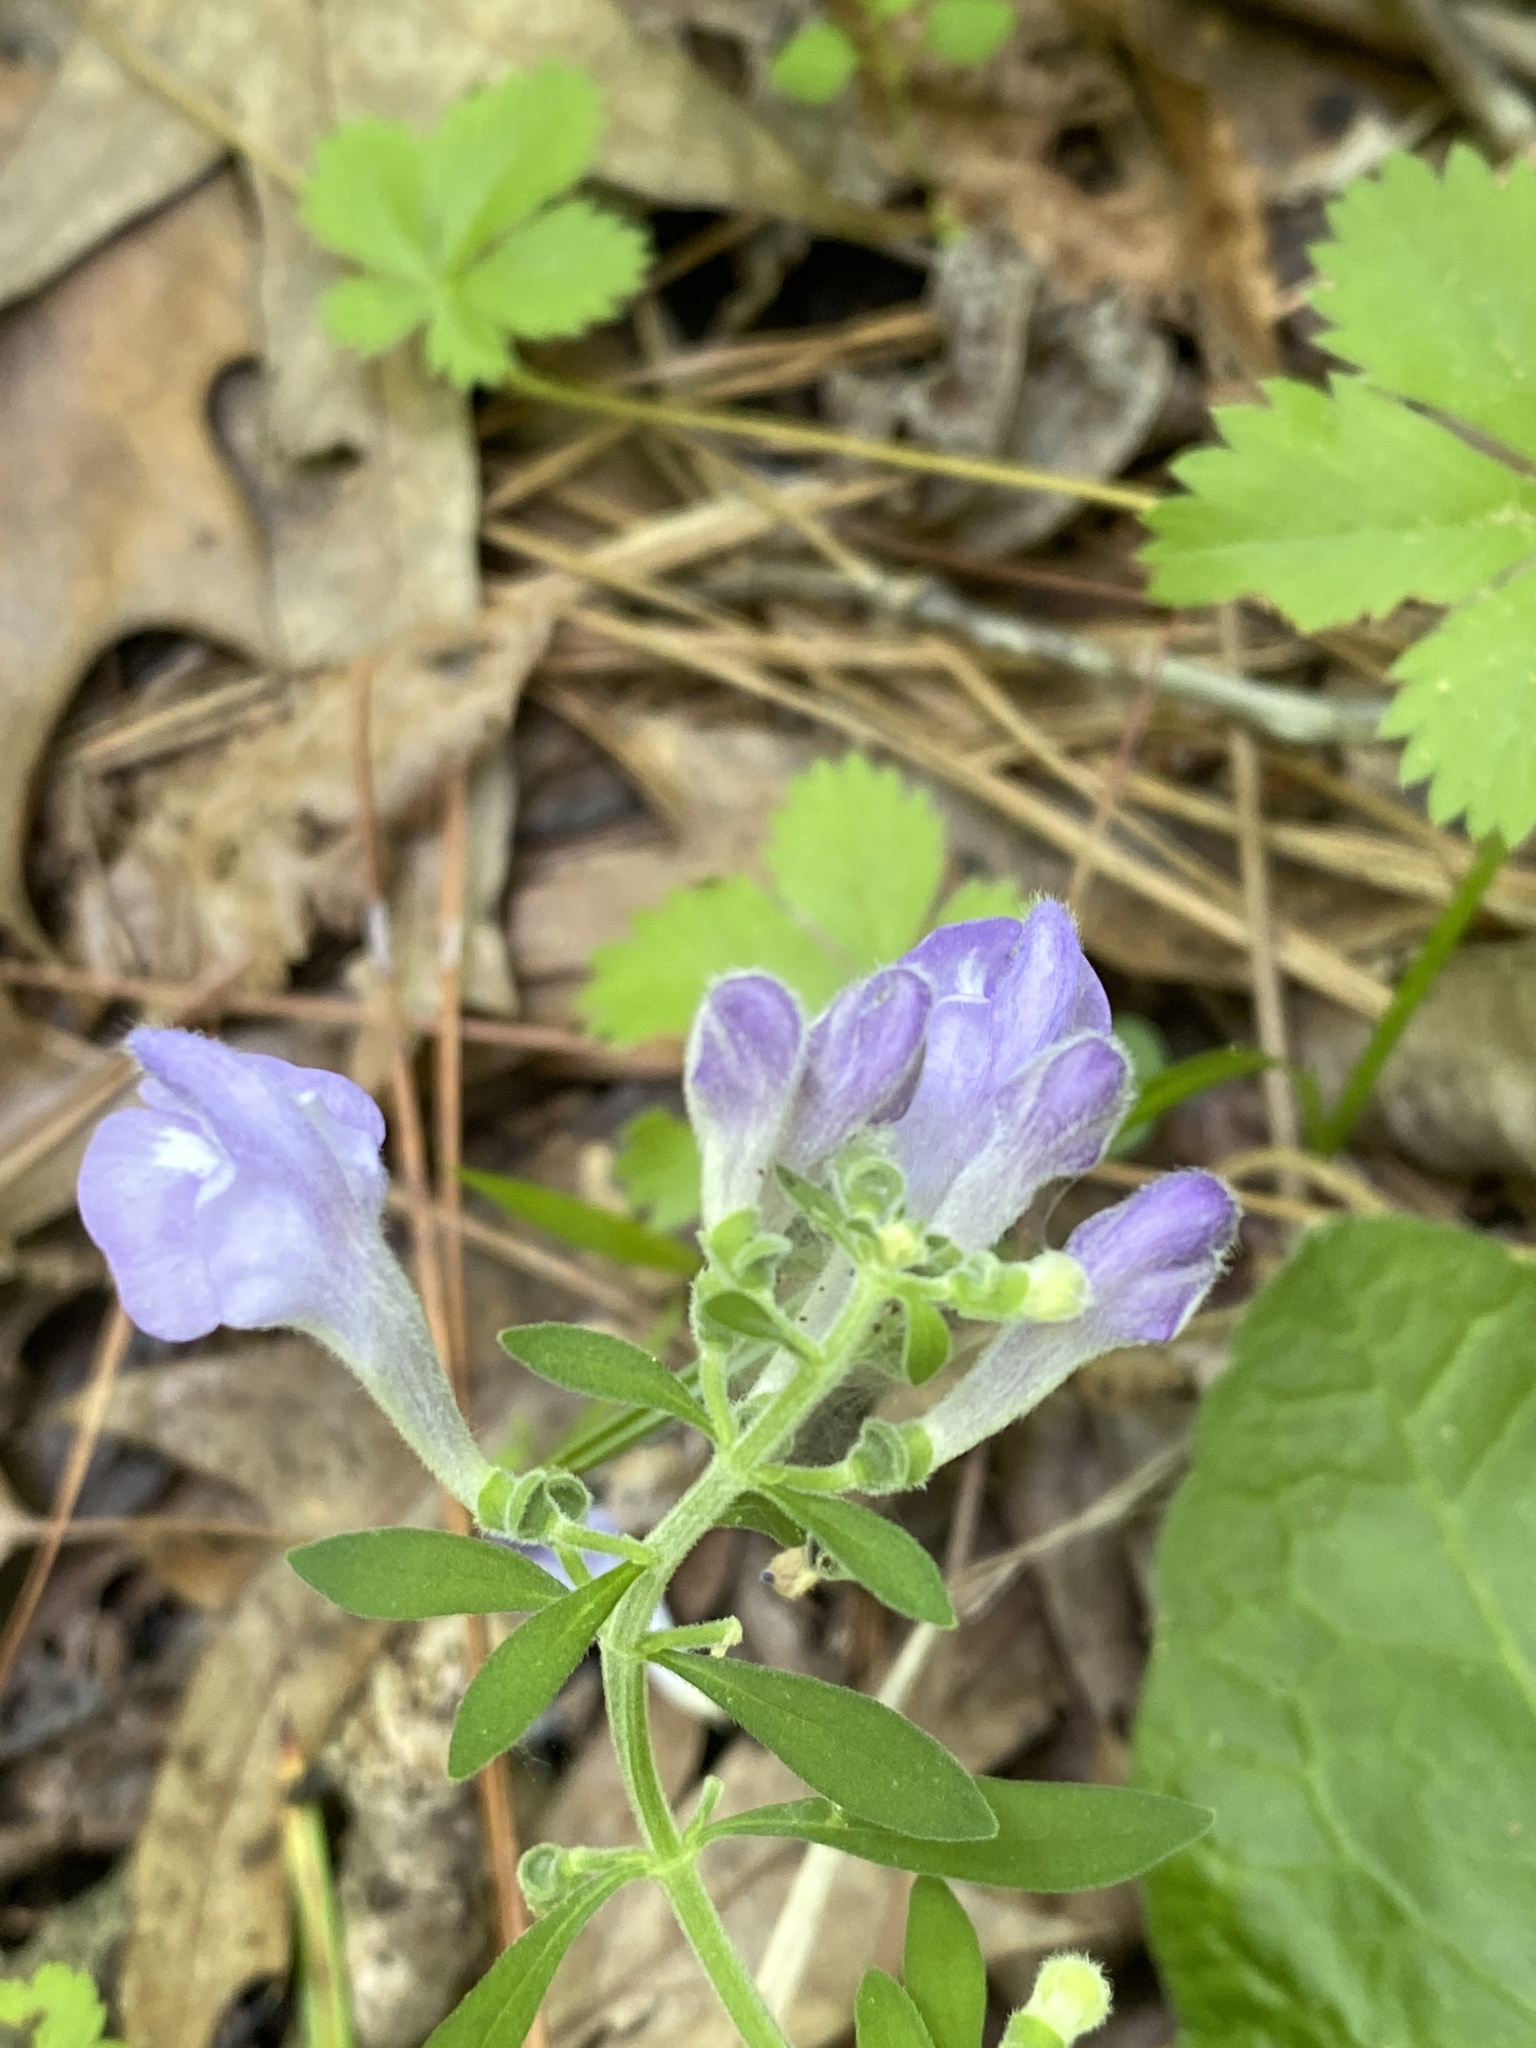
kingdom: Plantae
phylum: Tracheophyta
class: Magnoliopsida
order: Lamiales
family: Lamiaceae
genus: Scutellaria
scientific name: Scutellaria integrifolia
